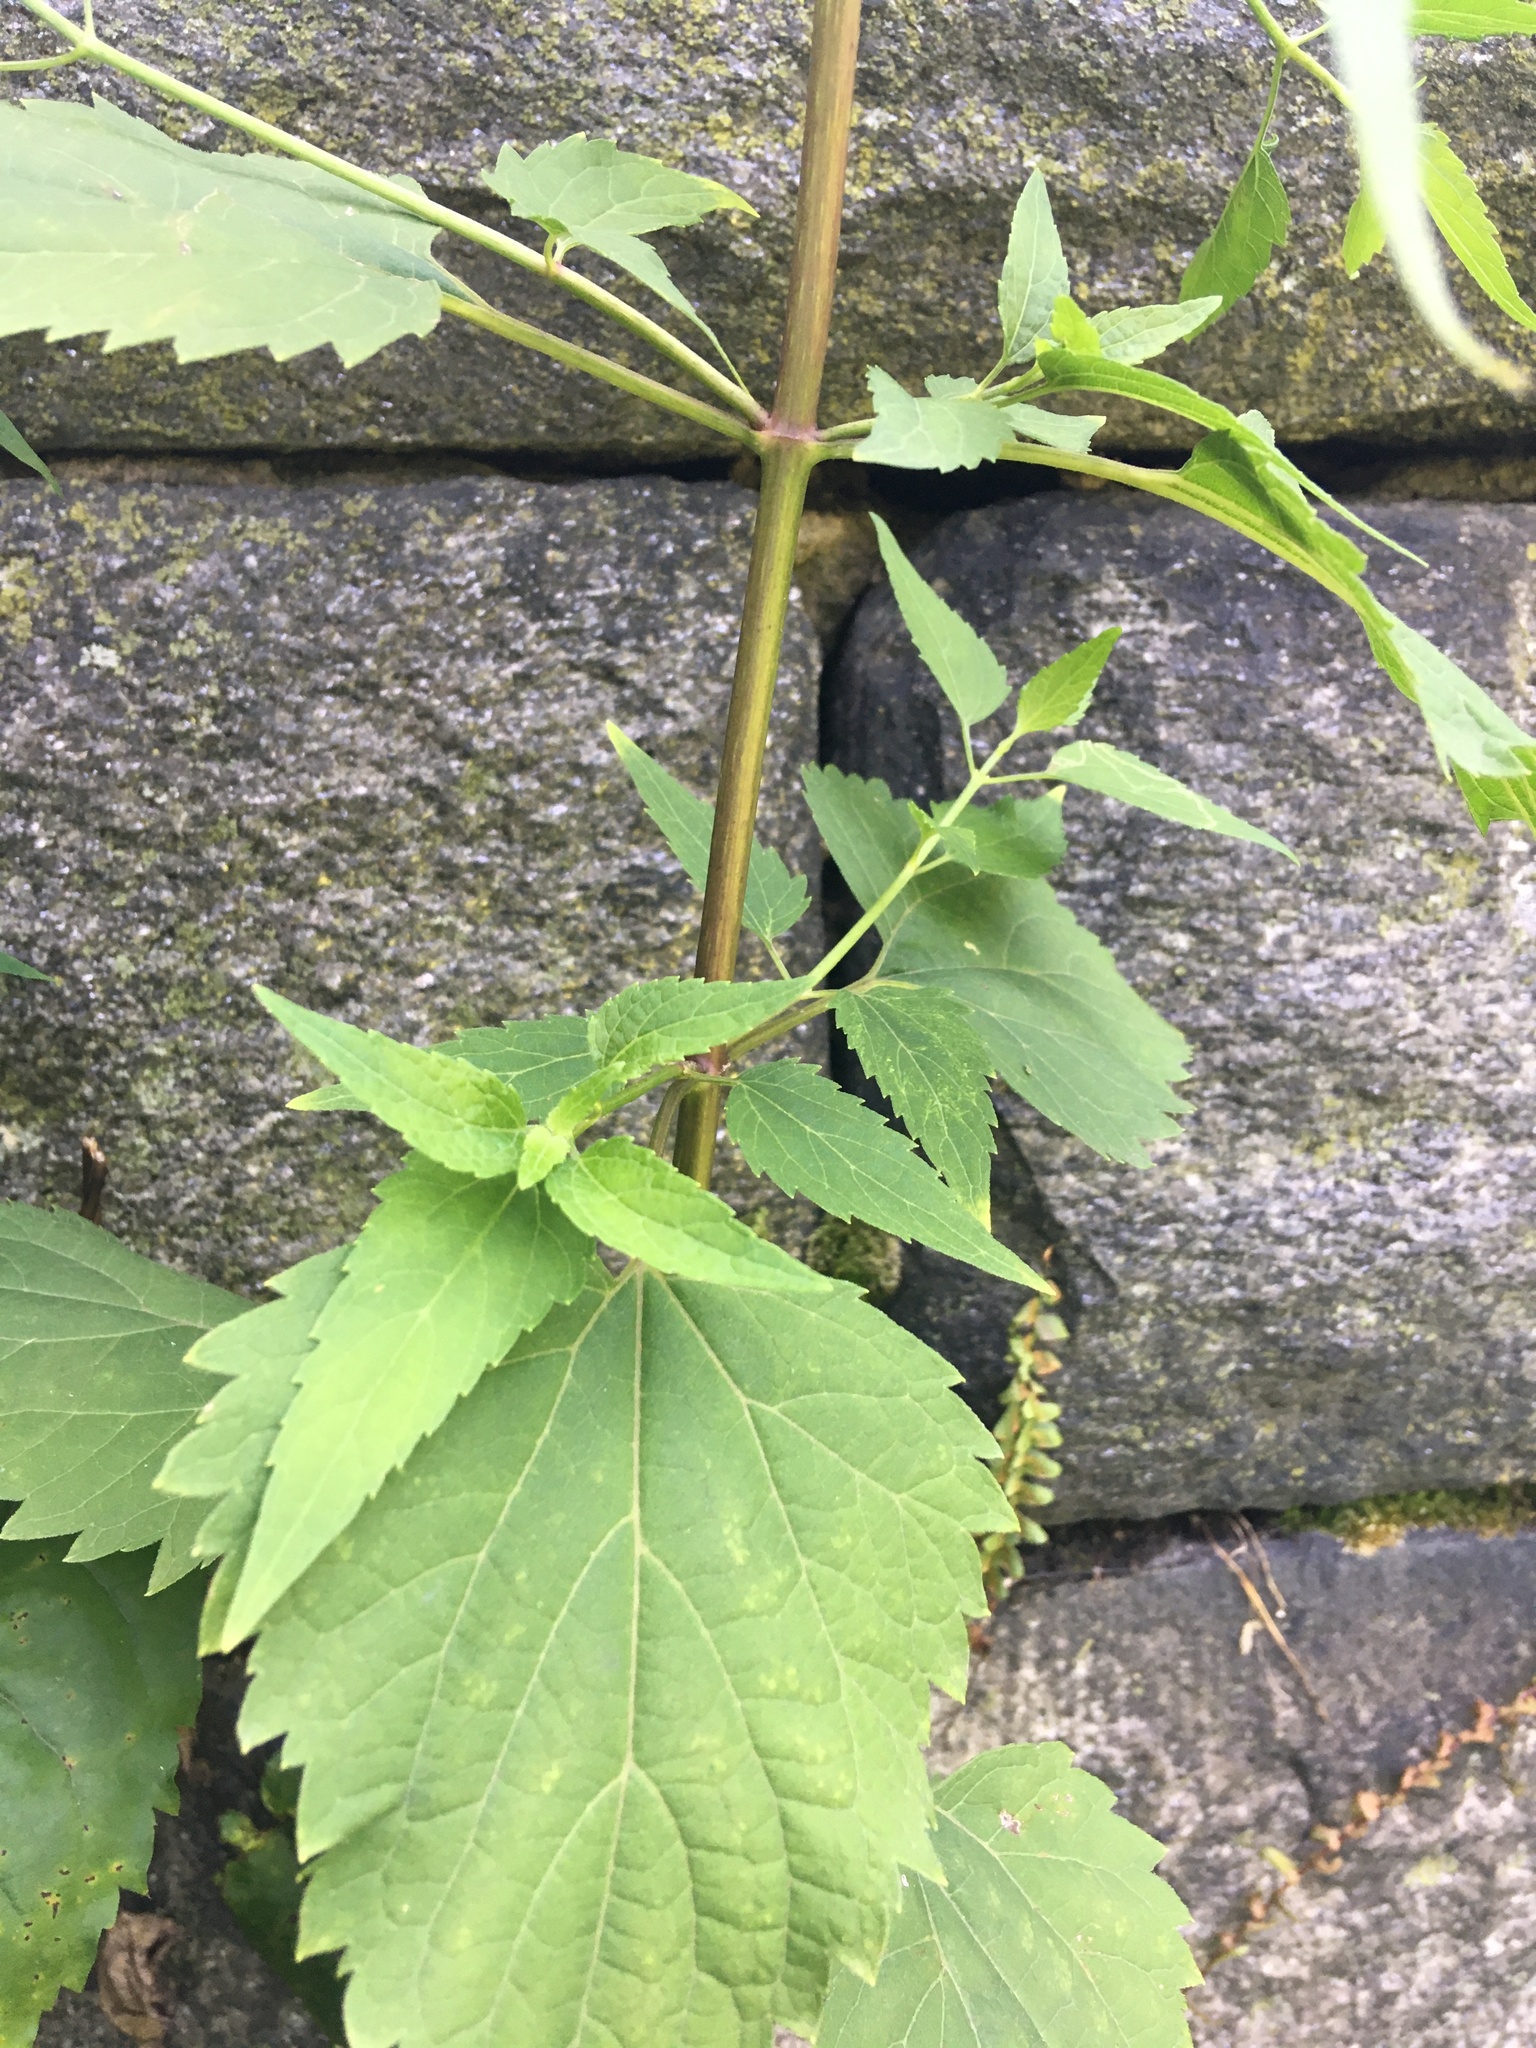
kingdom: Plantae
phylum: Tracheophyta
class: Magnoliopsida
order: Asterales
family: Asteraceae
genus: Ageratina
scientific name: Ageratina altissima
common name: White snakeroot
